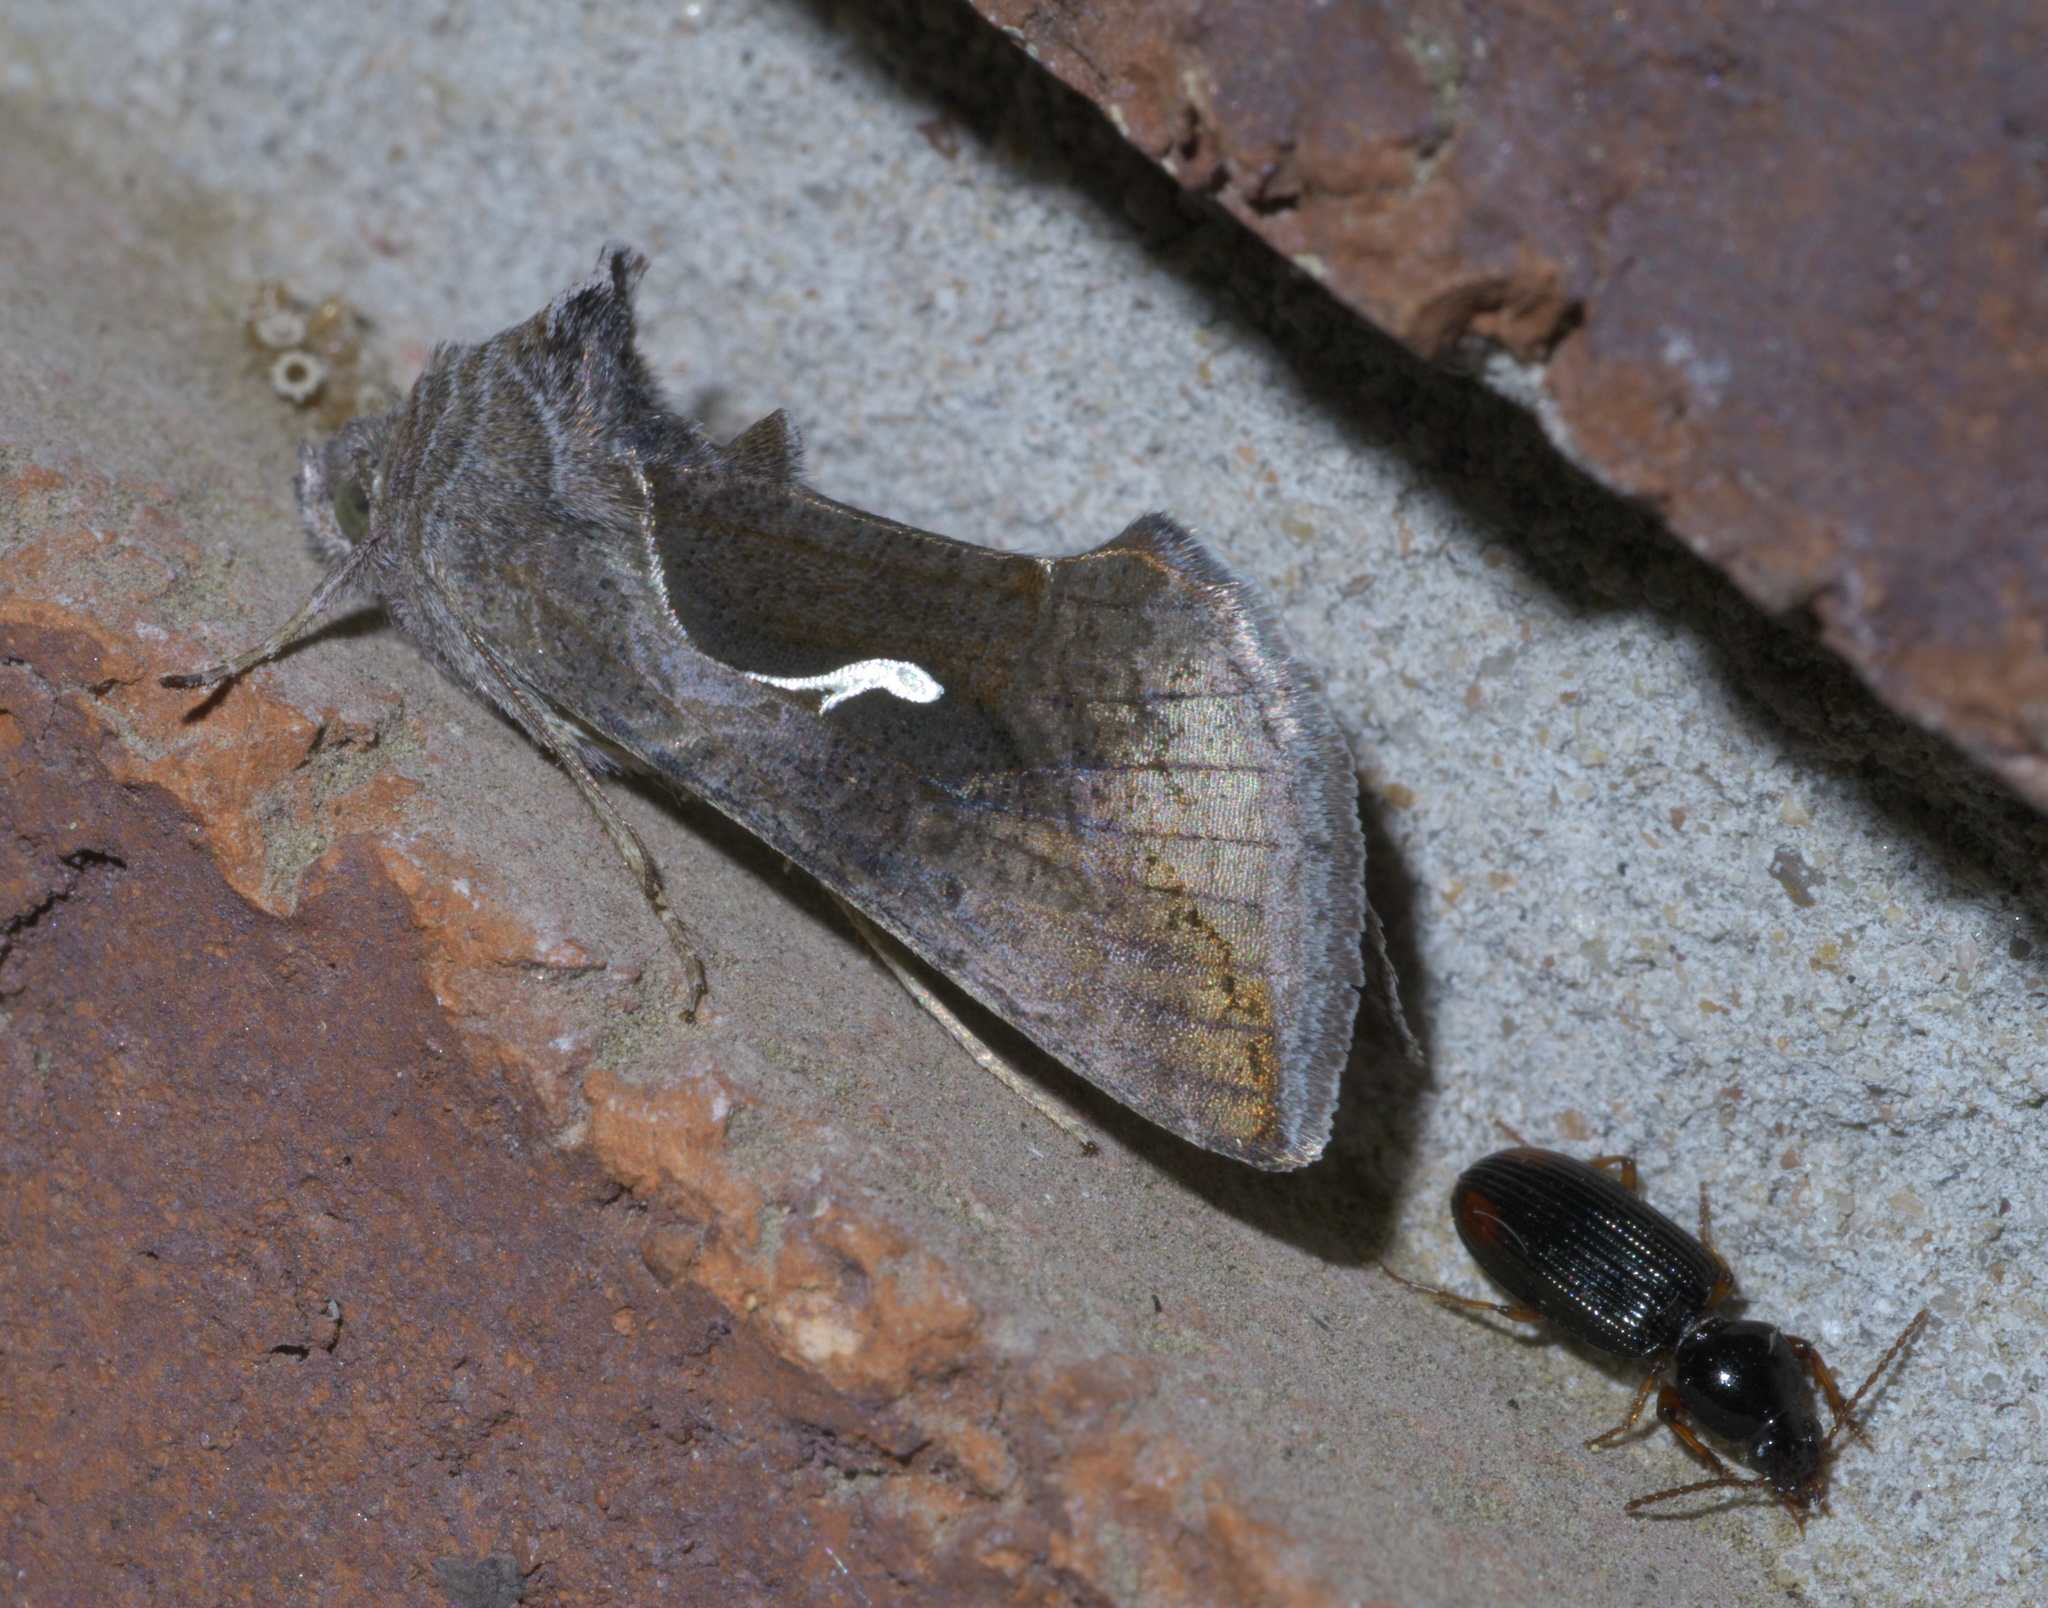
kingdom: Animalia
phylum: Arthropoda
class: Insecta
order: Lepidoptera
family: Noctuidae
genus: Anagrapha
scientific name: Anagrapha falcifera
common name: Celery looper
